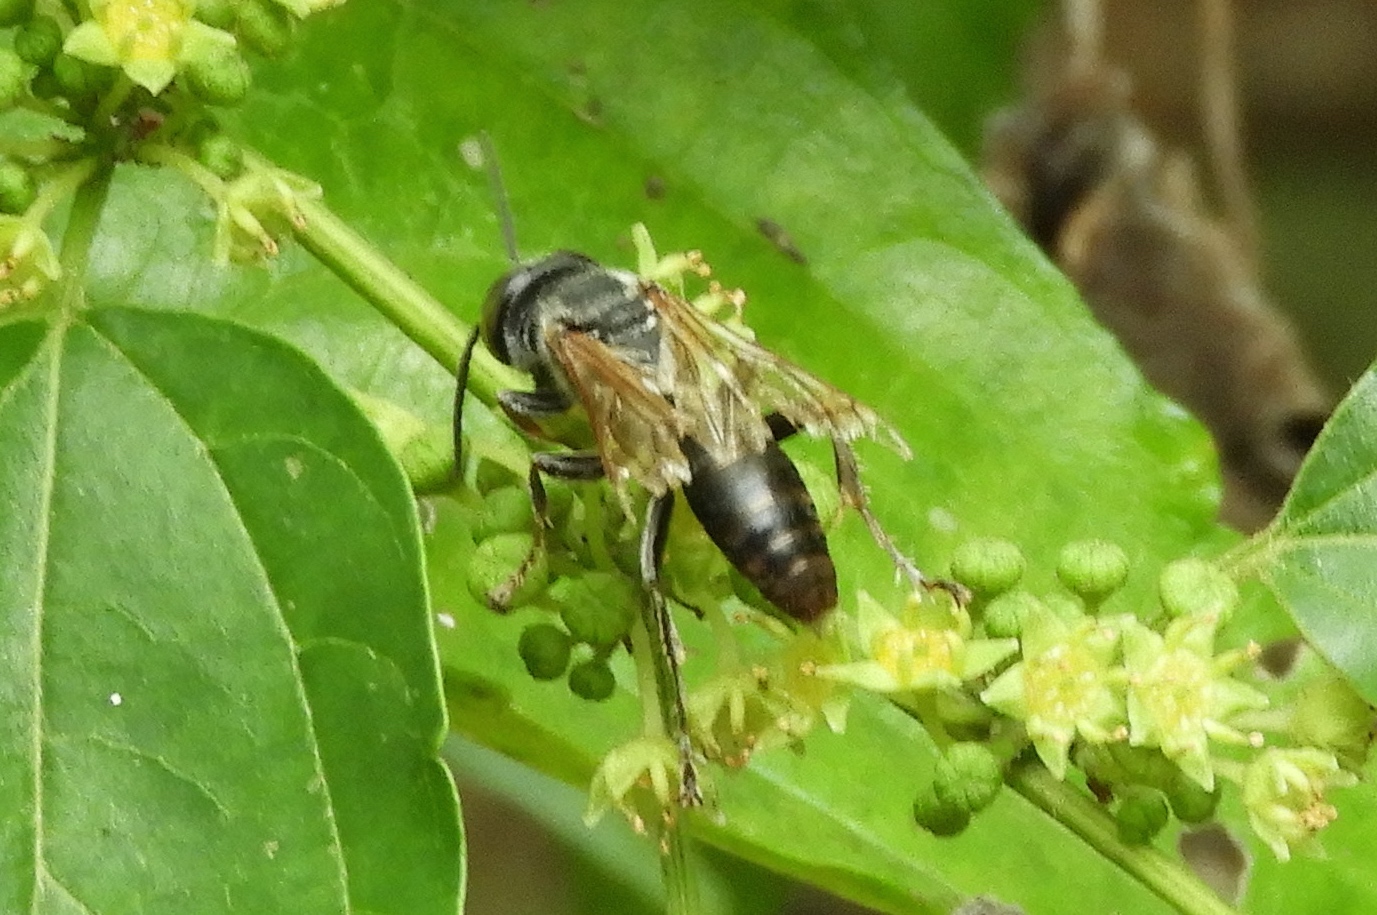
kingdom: Animalia
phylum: Arthropoda
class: Insecta
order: Hymenoptera
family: Crabronidae
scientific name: Crabronidae
